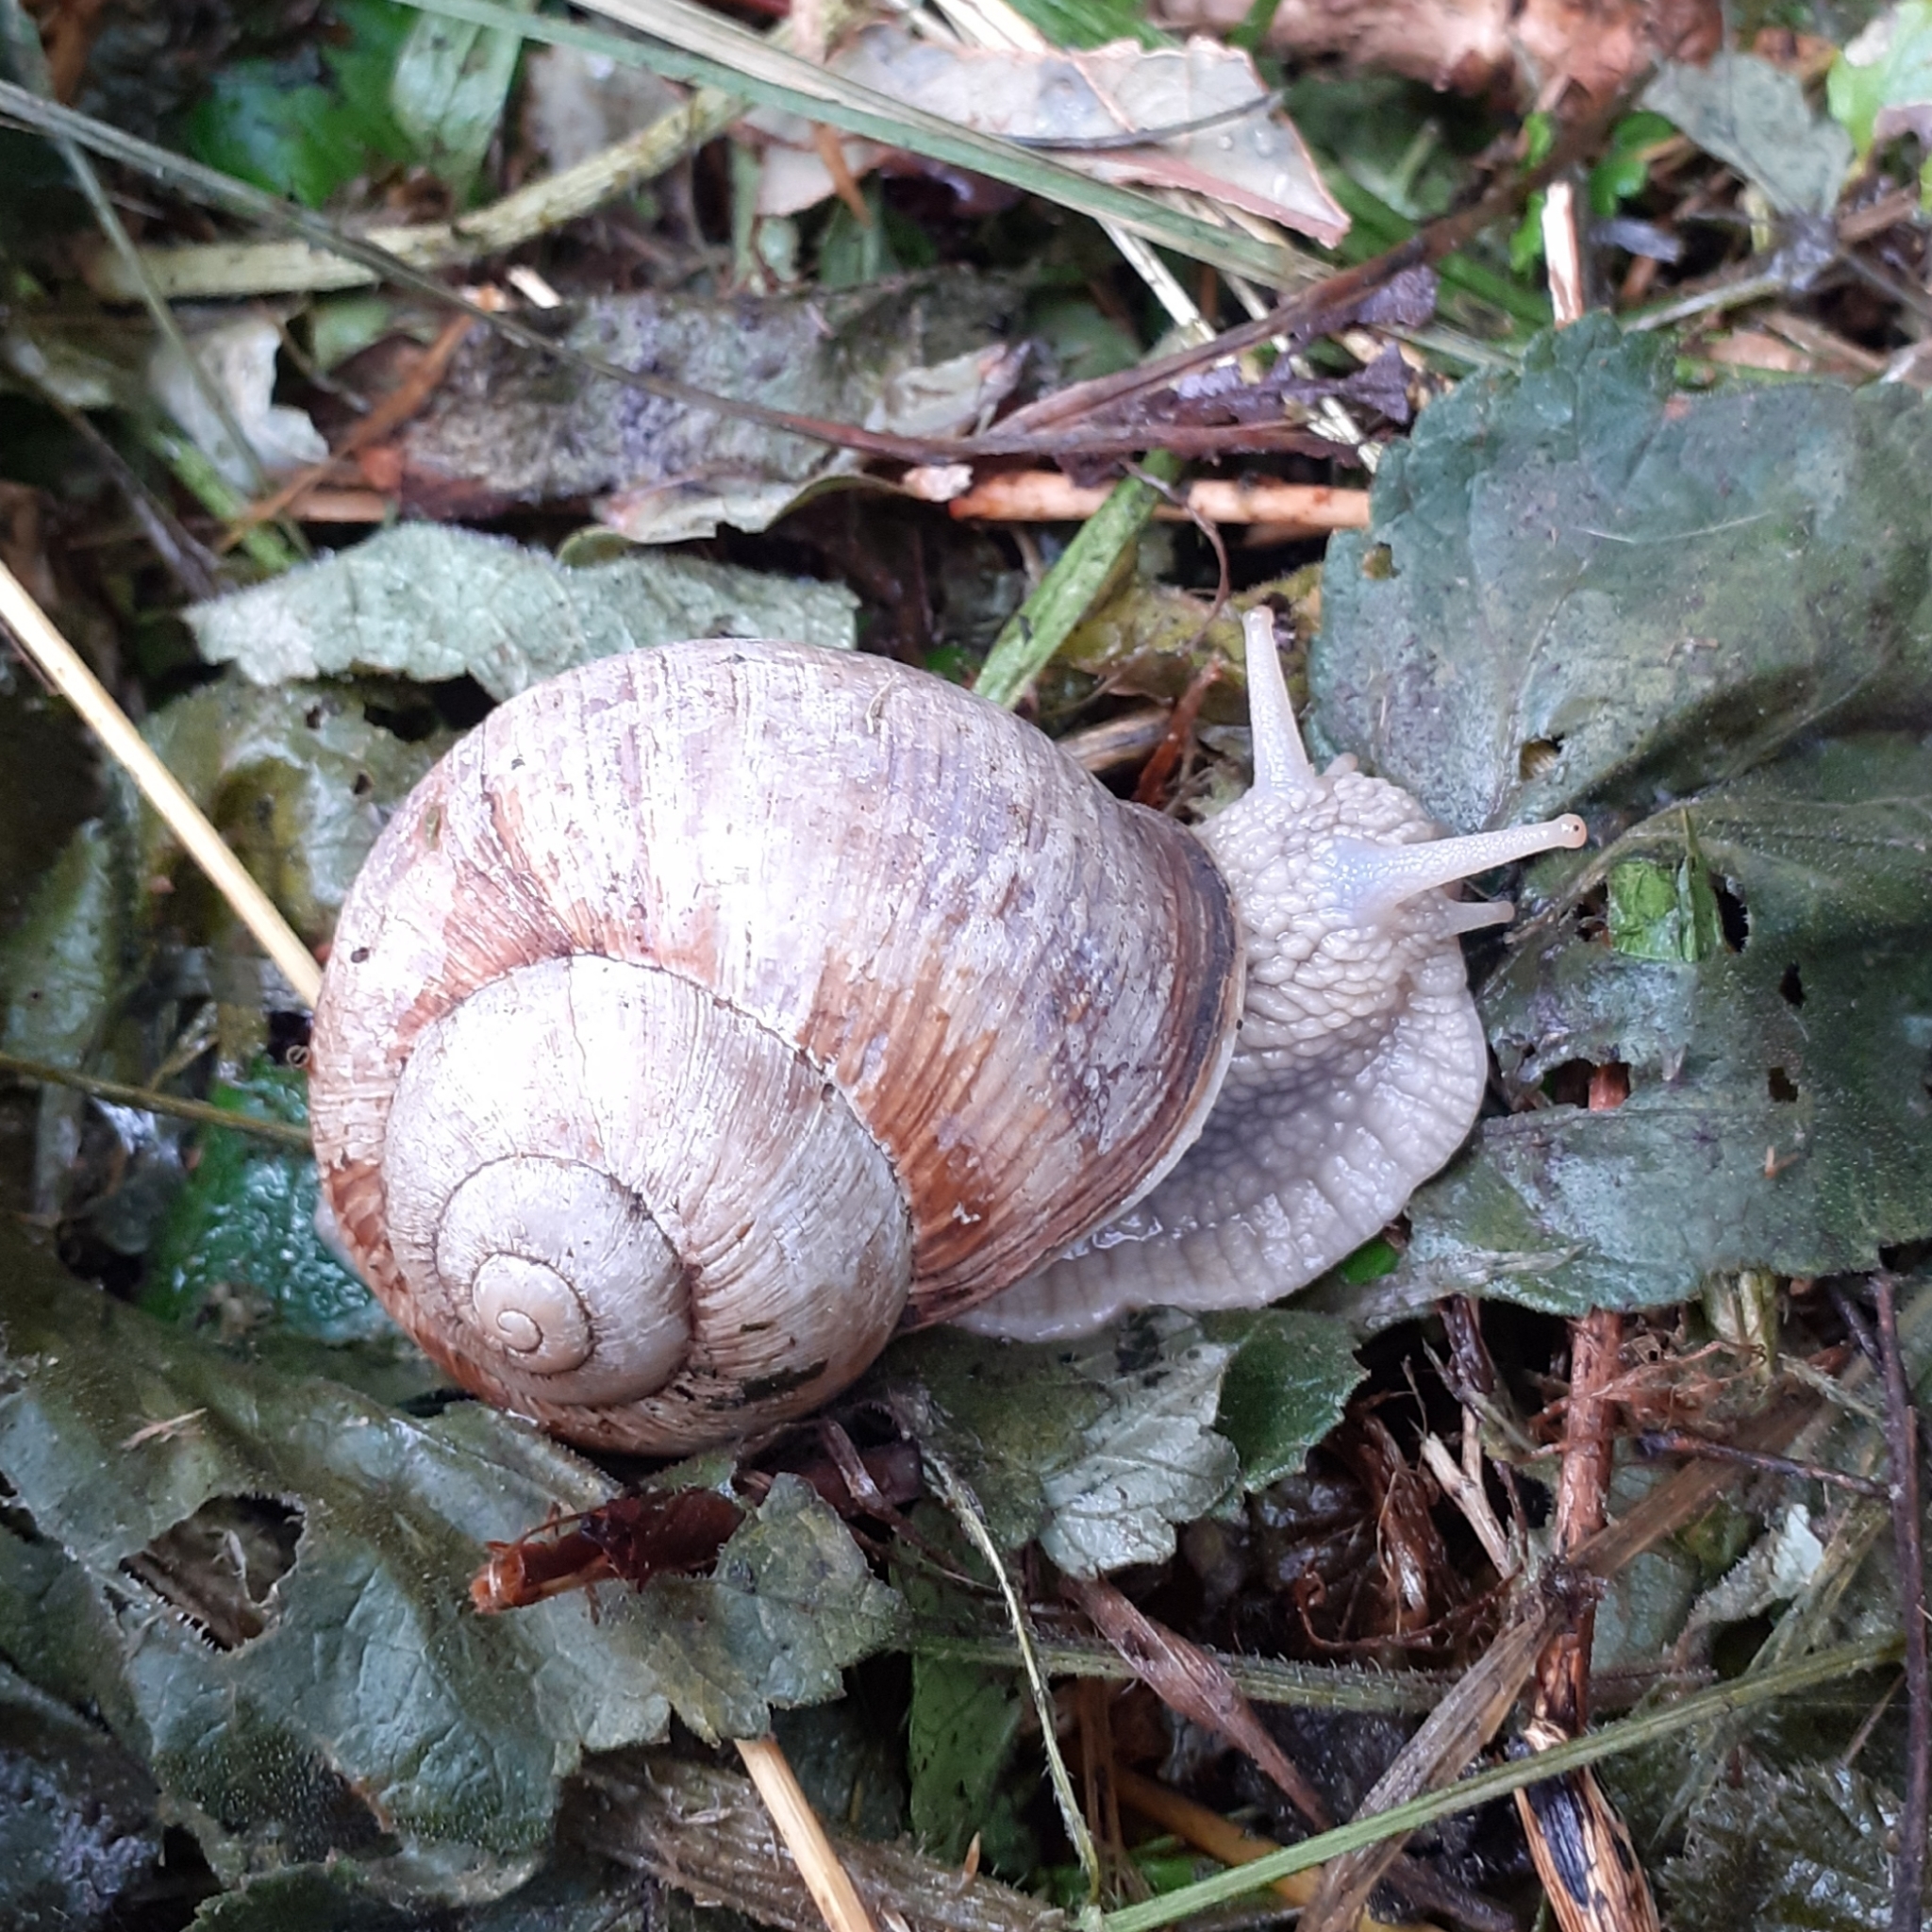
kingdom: Animalia
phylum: Mollusca
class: Gastropoda
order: Stylommatophora
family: Helicidae
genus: Helix
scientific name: Helix pomatia
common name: Roman snail
